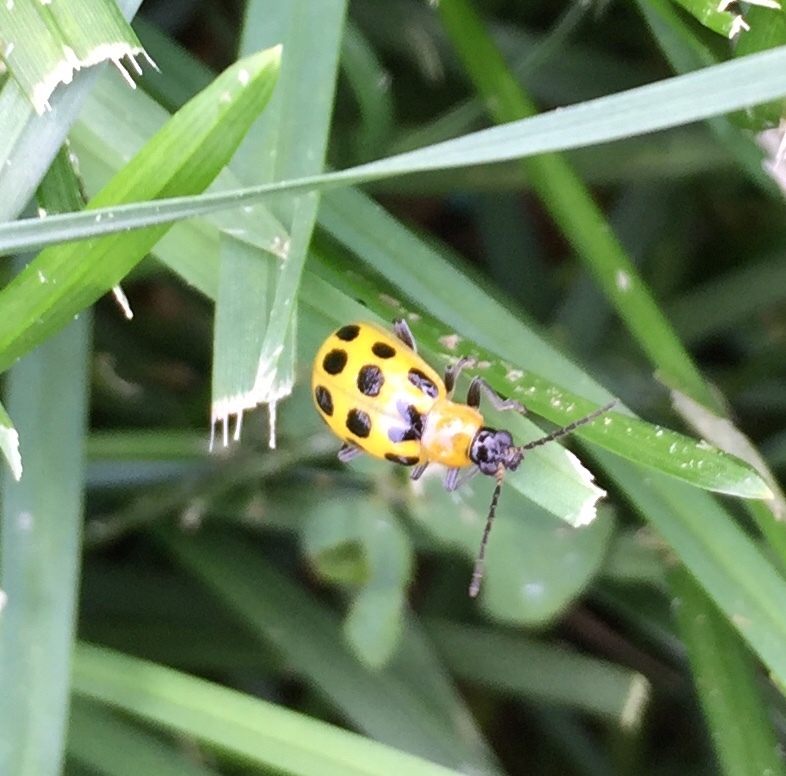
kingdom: Animalia
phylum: Arthropoda
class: Insecta
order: Coleoptera
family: Chrysomelidae
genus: Diabrotica
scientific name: Diabrotica undecimpunctata
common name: Spotted cucumber beetle
